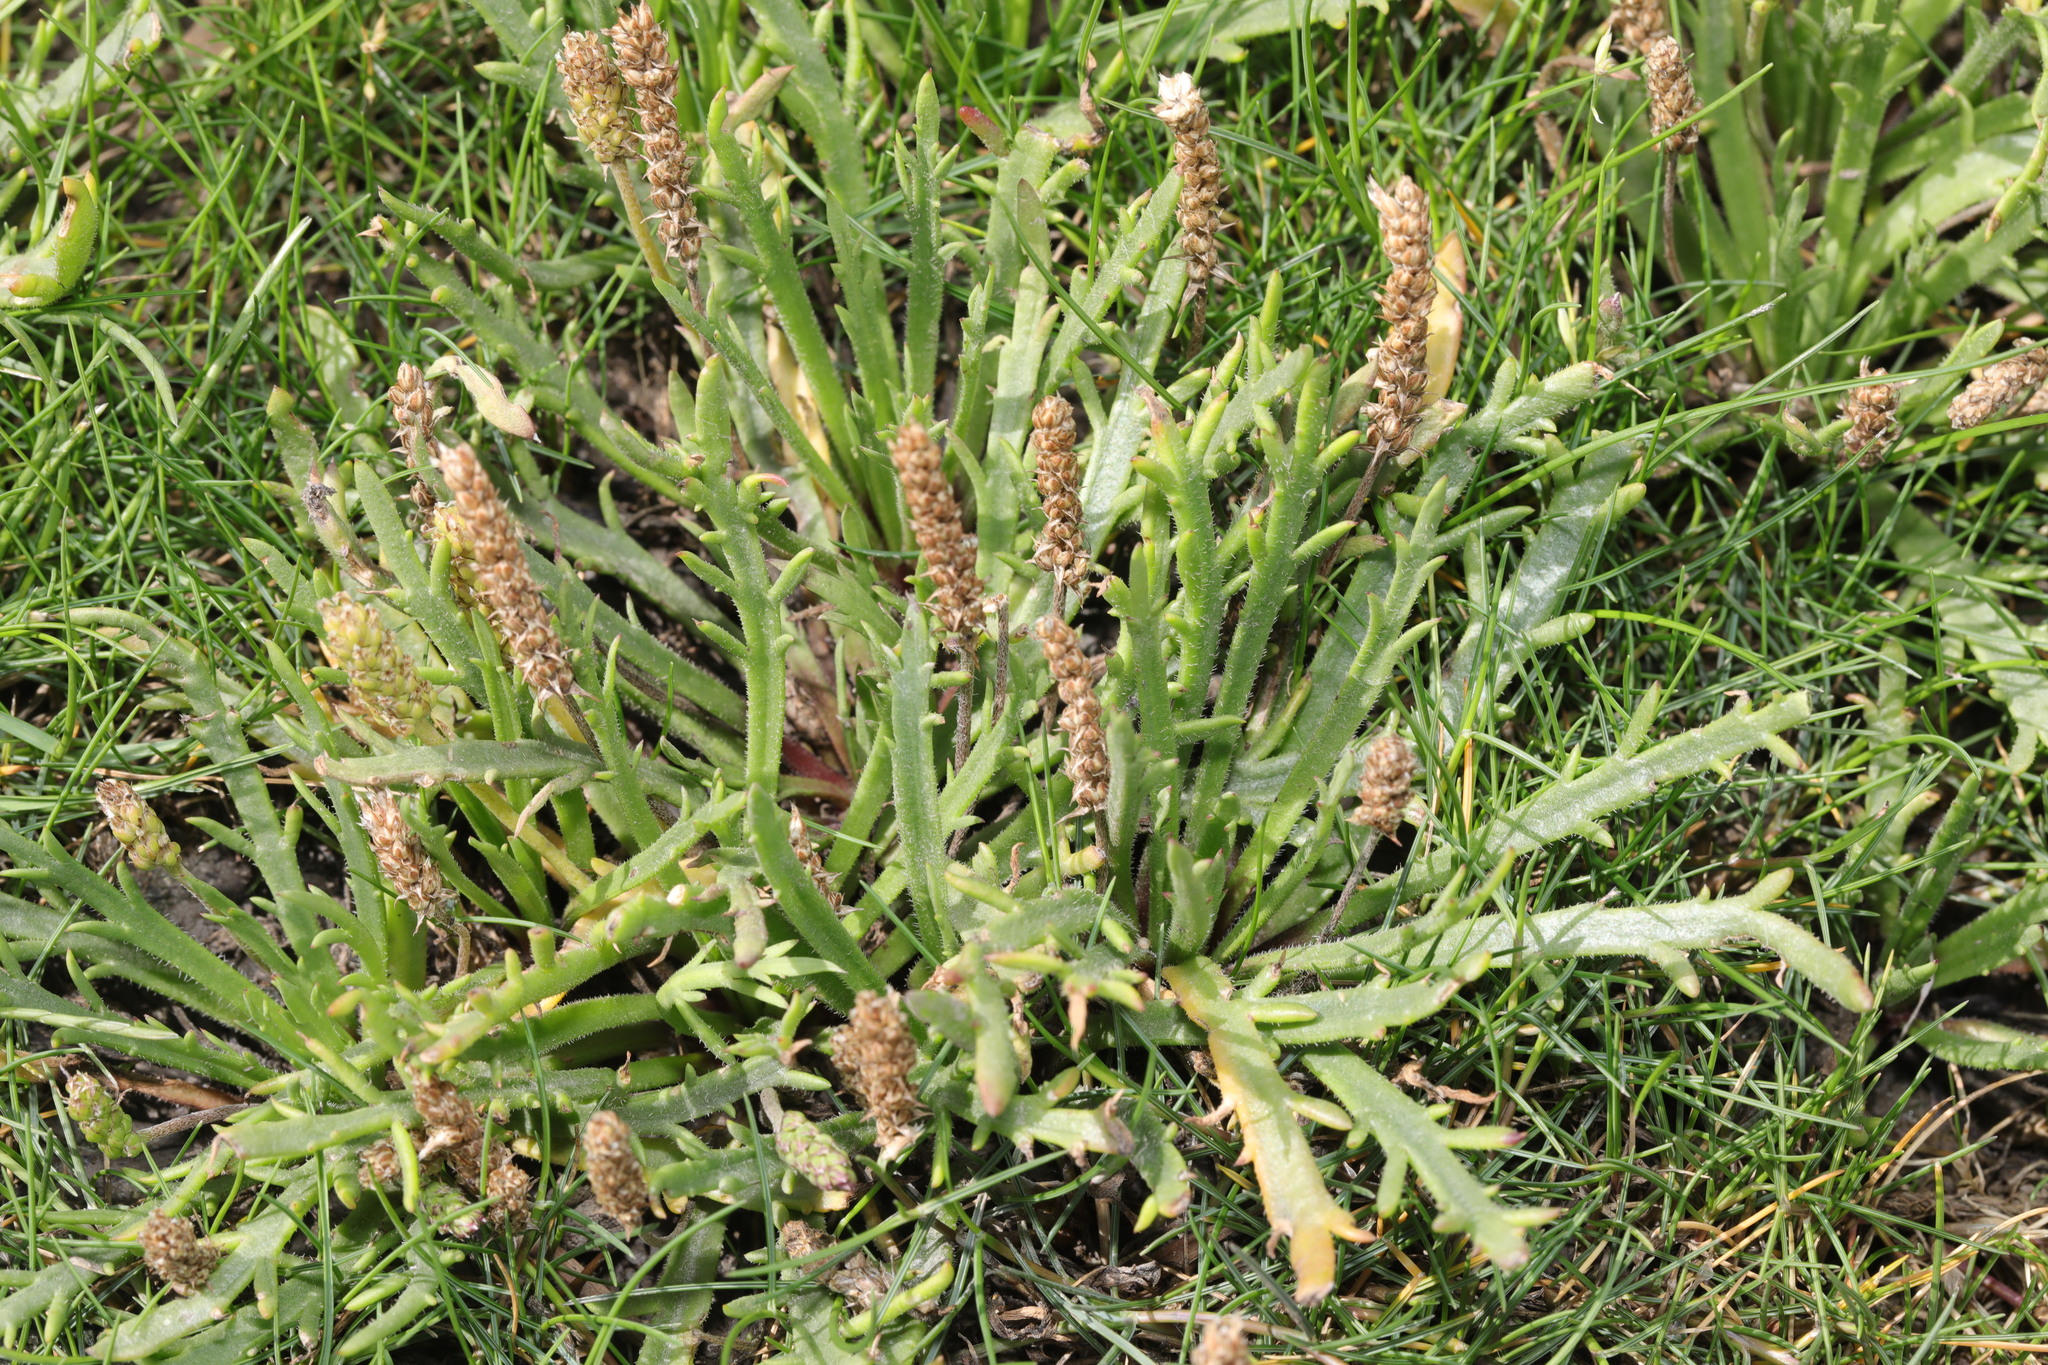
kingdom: Plantae
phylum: Tracheophyta
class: Magnoliopsida
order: Lamiales
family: Plantaginaceae
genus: Plantago
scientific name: Plantago coronopus
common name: Buck's-horn plantain
